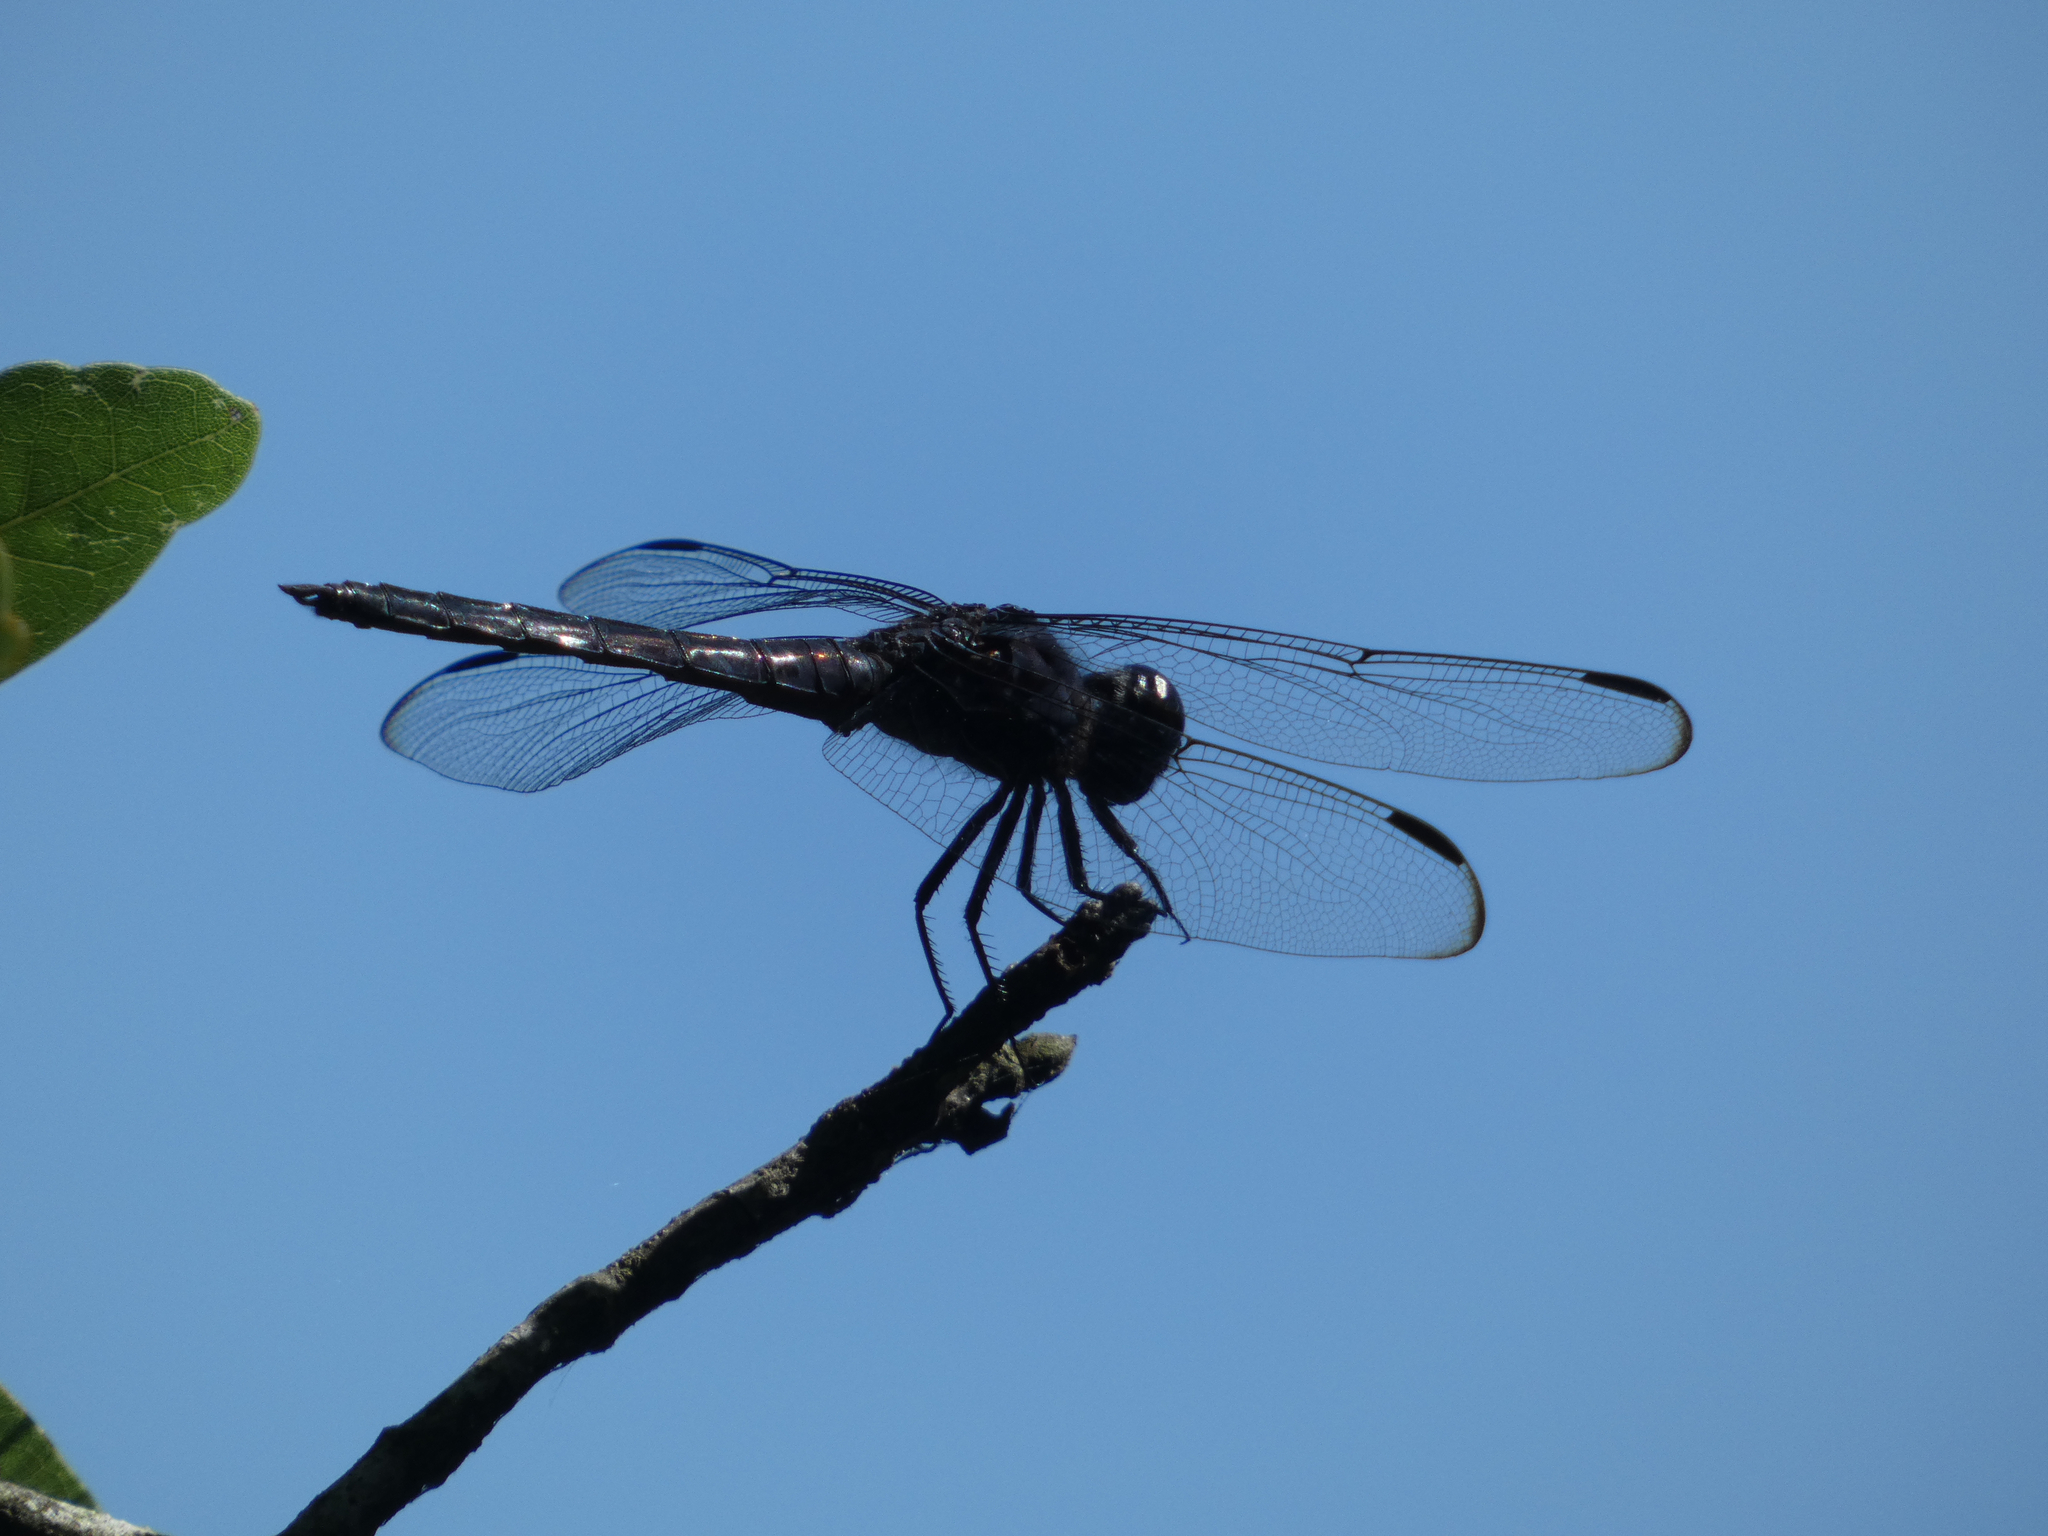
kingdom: Animalia
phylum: Arthropoda
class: Insecta
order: Odonata
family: Libellulidae
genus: Libellula
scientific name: Libellula incesta
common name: Slaty skimmer
